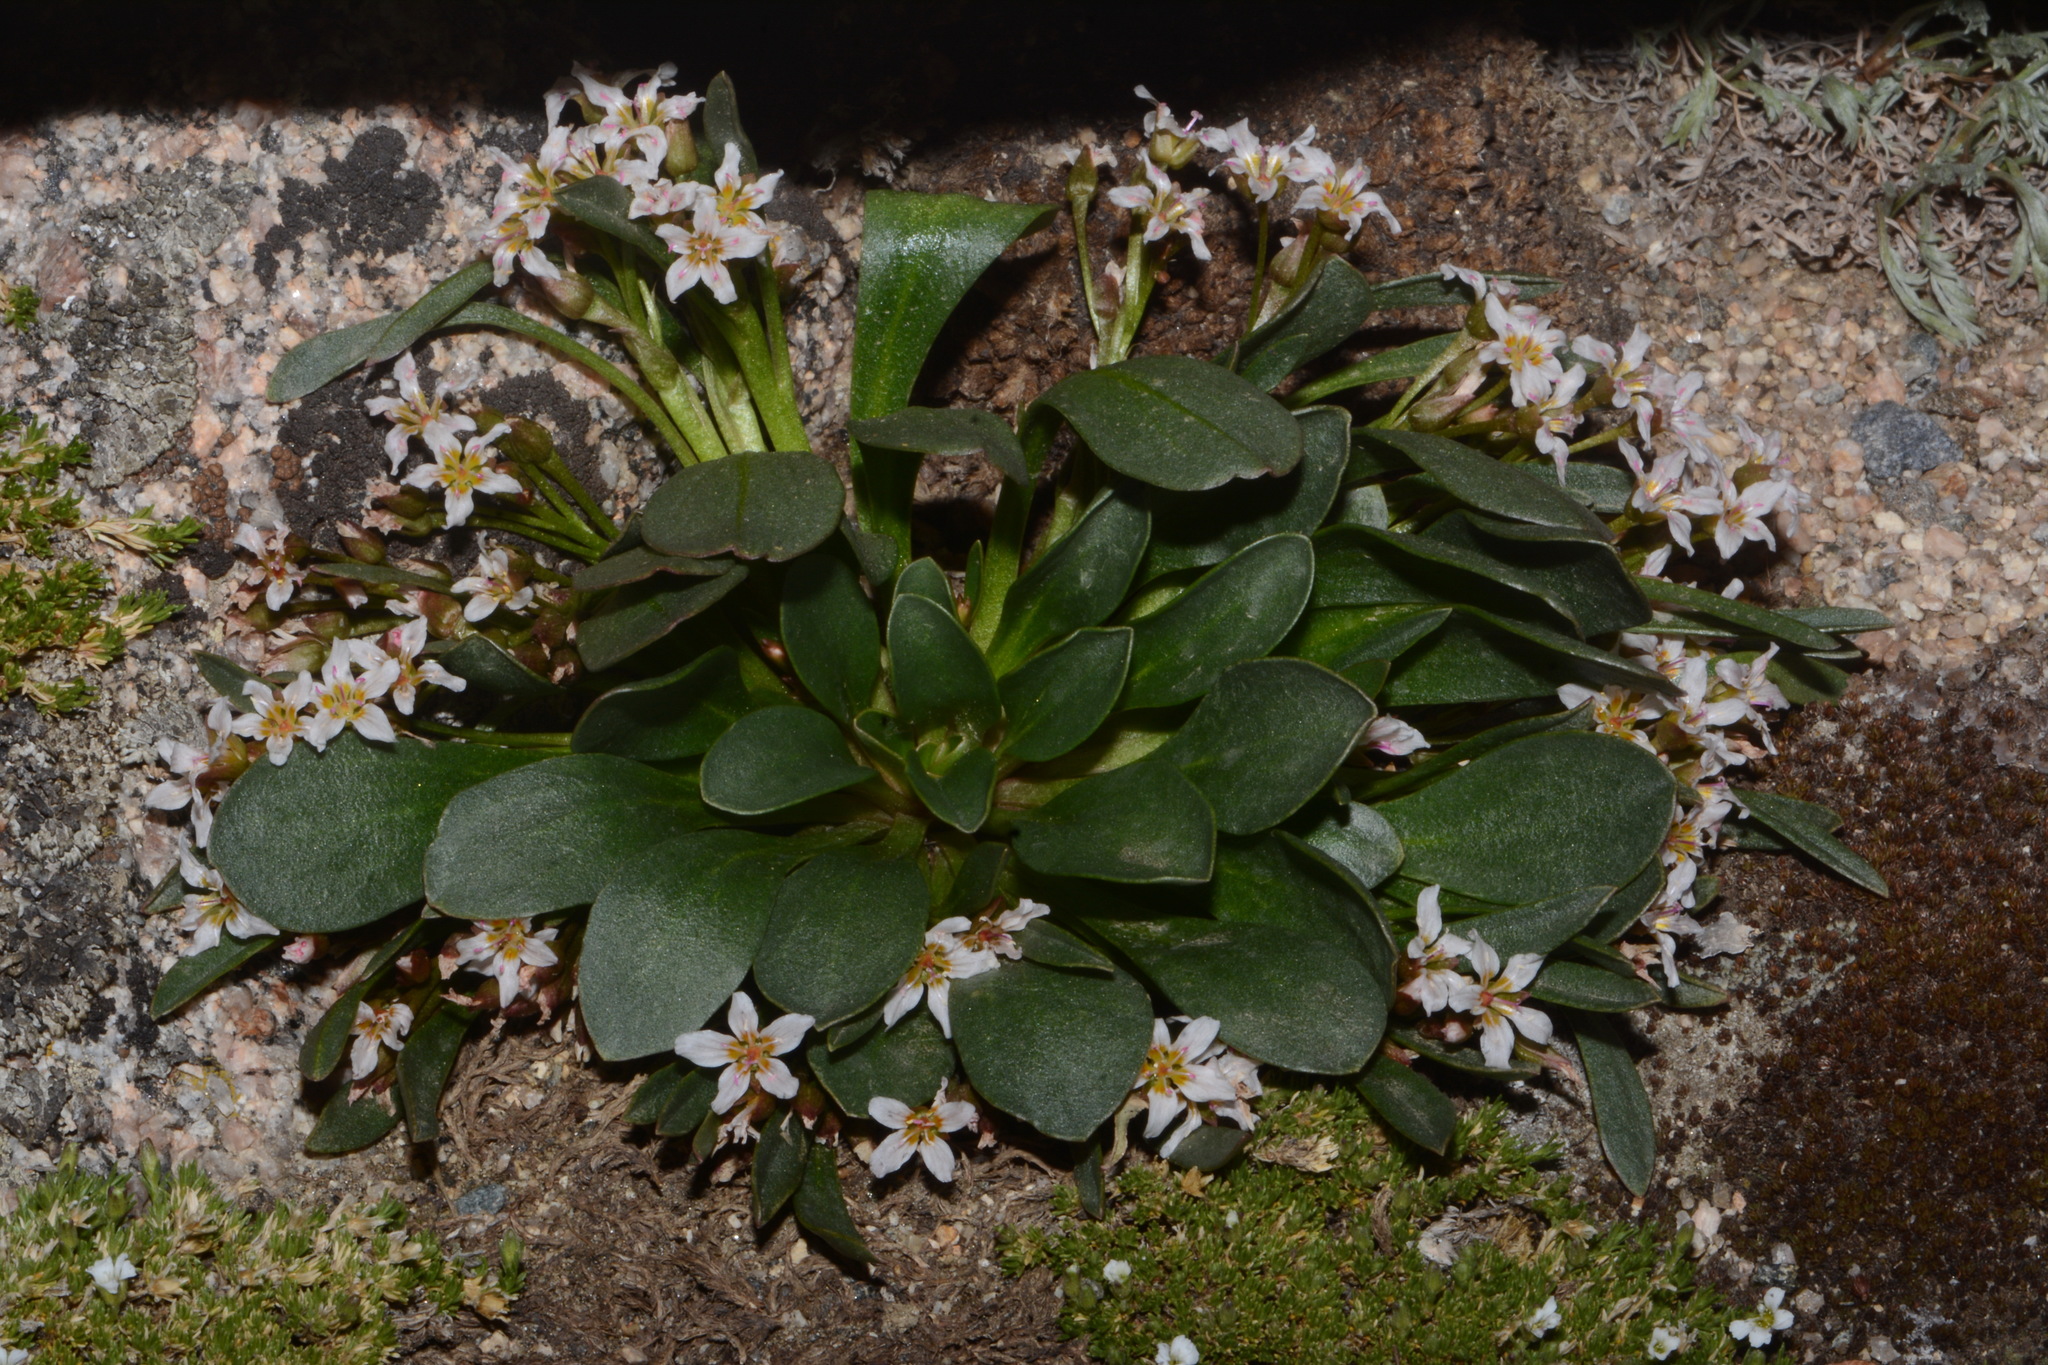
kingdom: Plantae
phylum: Tracheophyta
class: Magnoliopsida
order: Caryophyllales
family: Montiaceae
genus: Claytonia
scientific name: Claytonia megarhiza
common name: Alpine spring beauty
